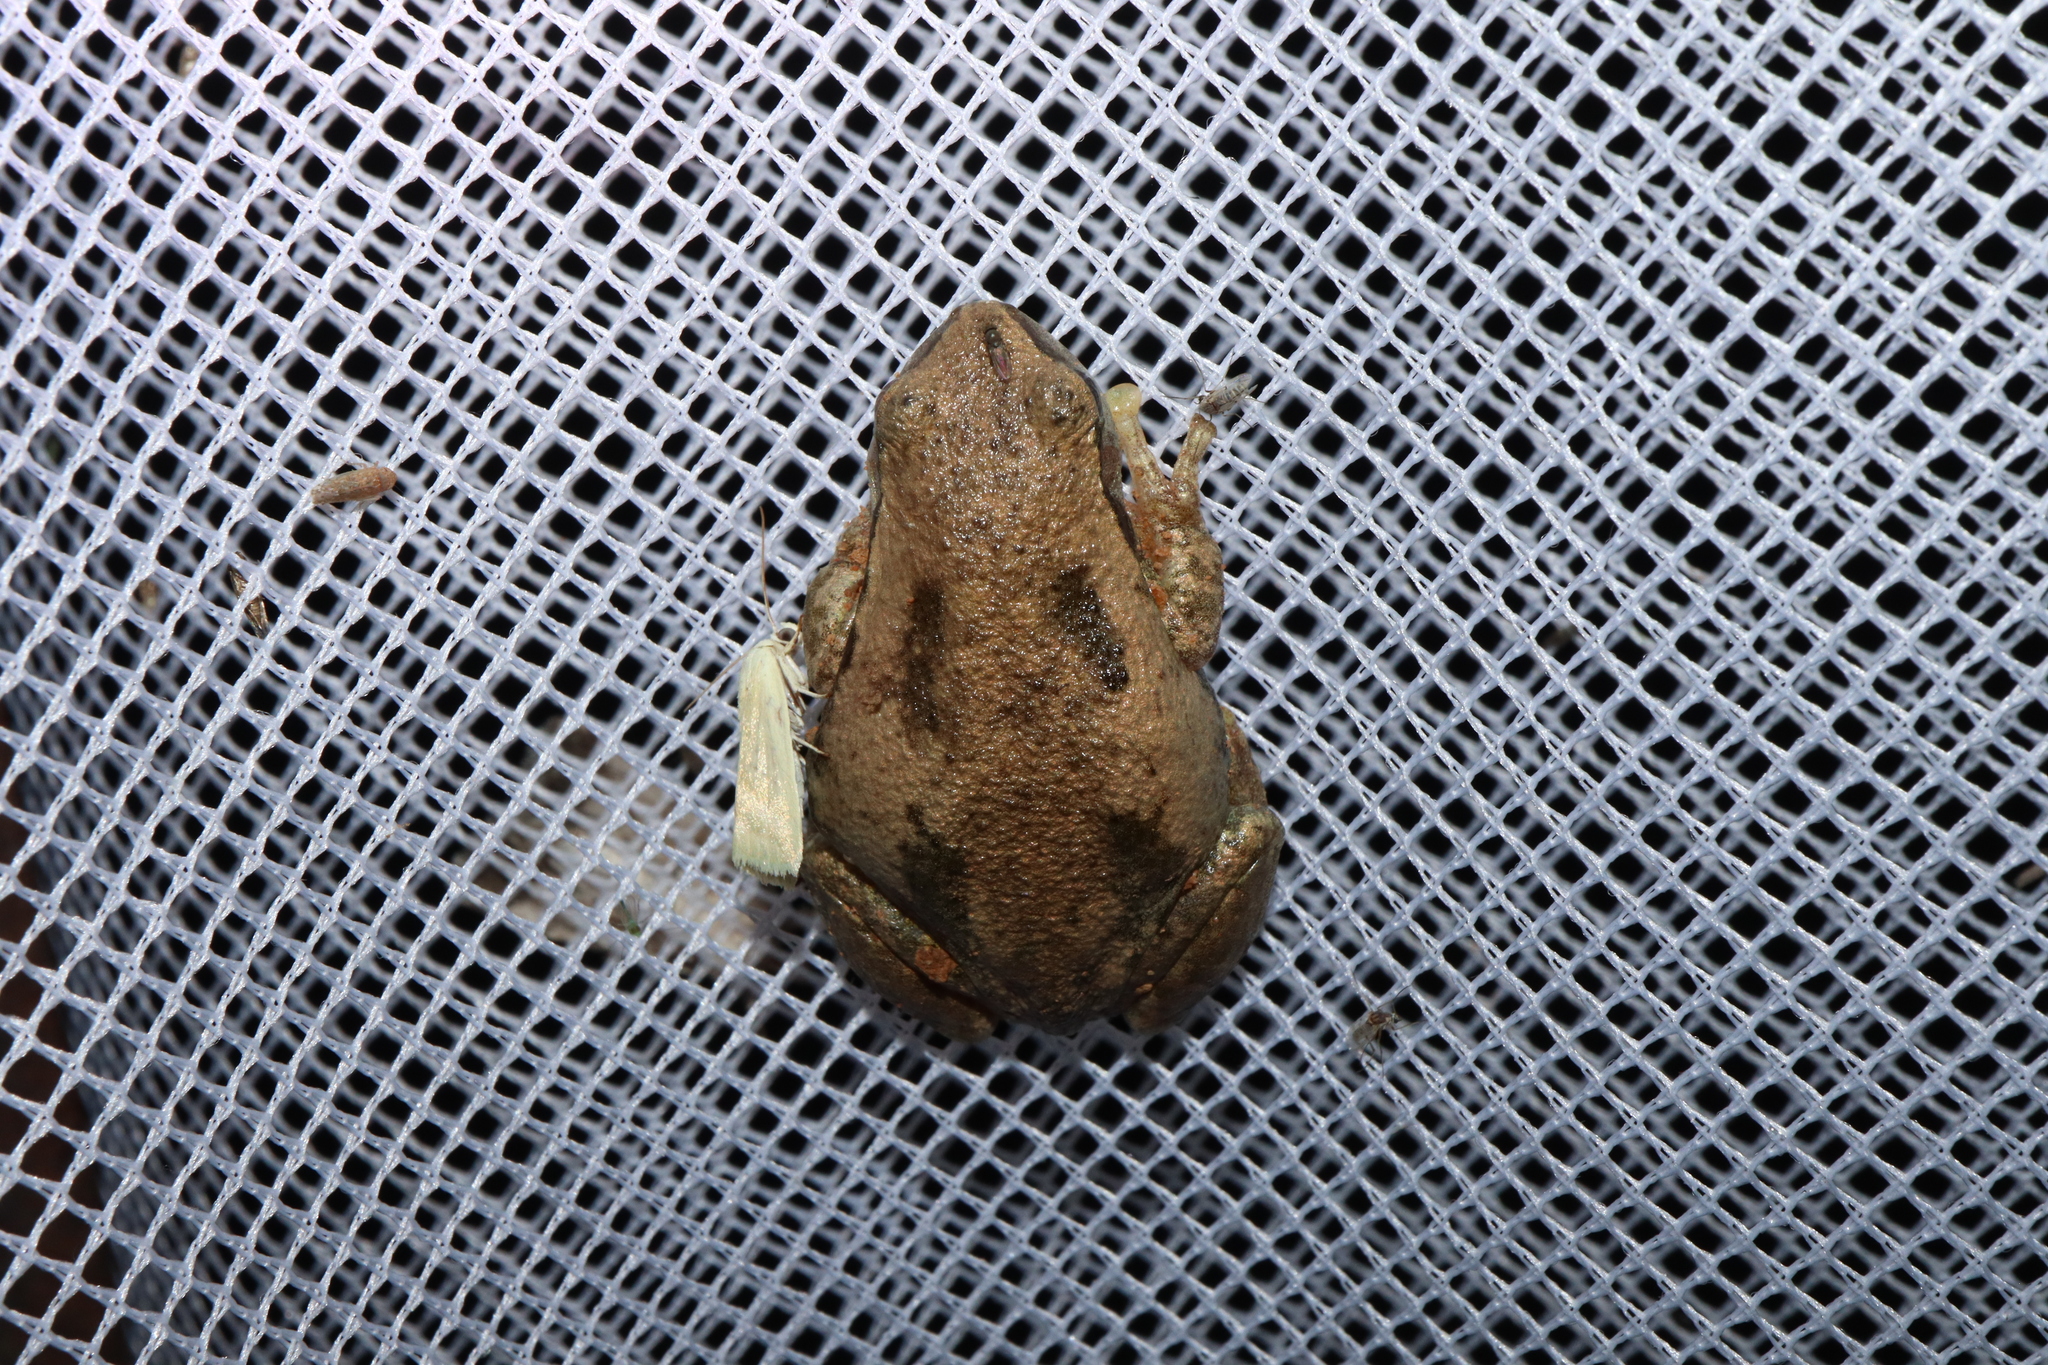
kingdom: Animalia
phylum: Chordata
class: Amphibia
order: Anura
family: Pelodryadidae
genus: Litoria
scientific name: Litoria rubella
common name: Desert tree frog
